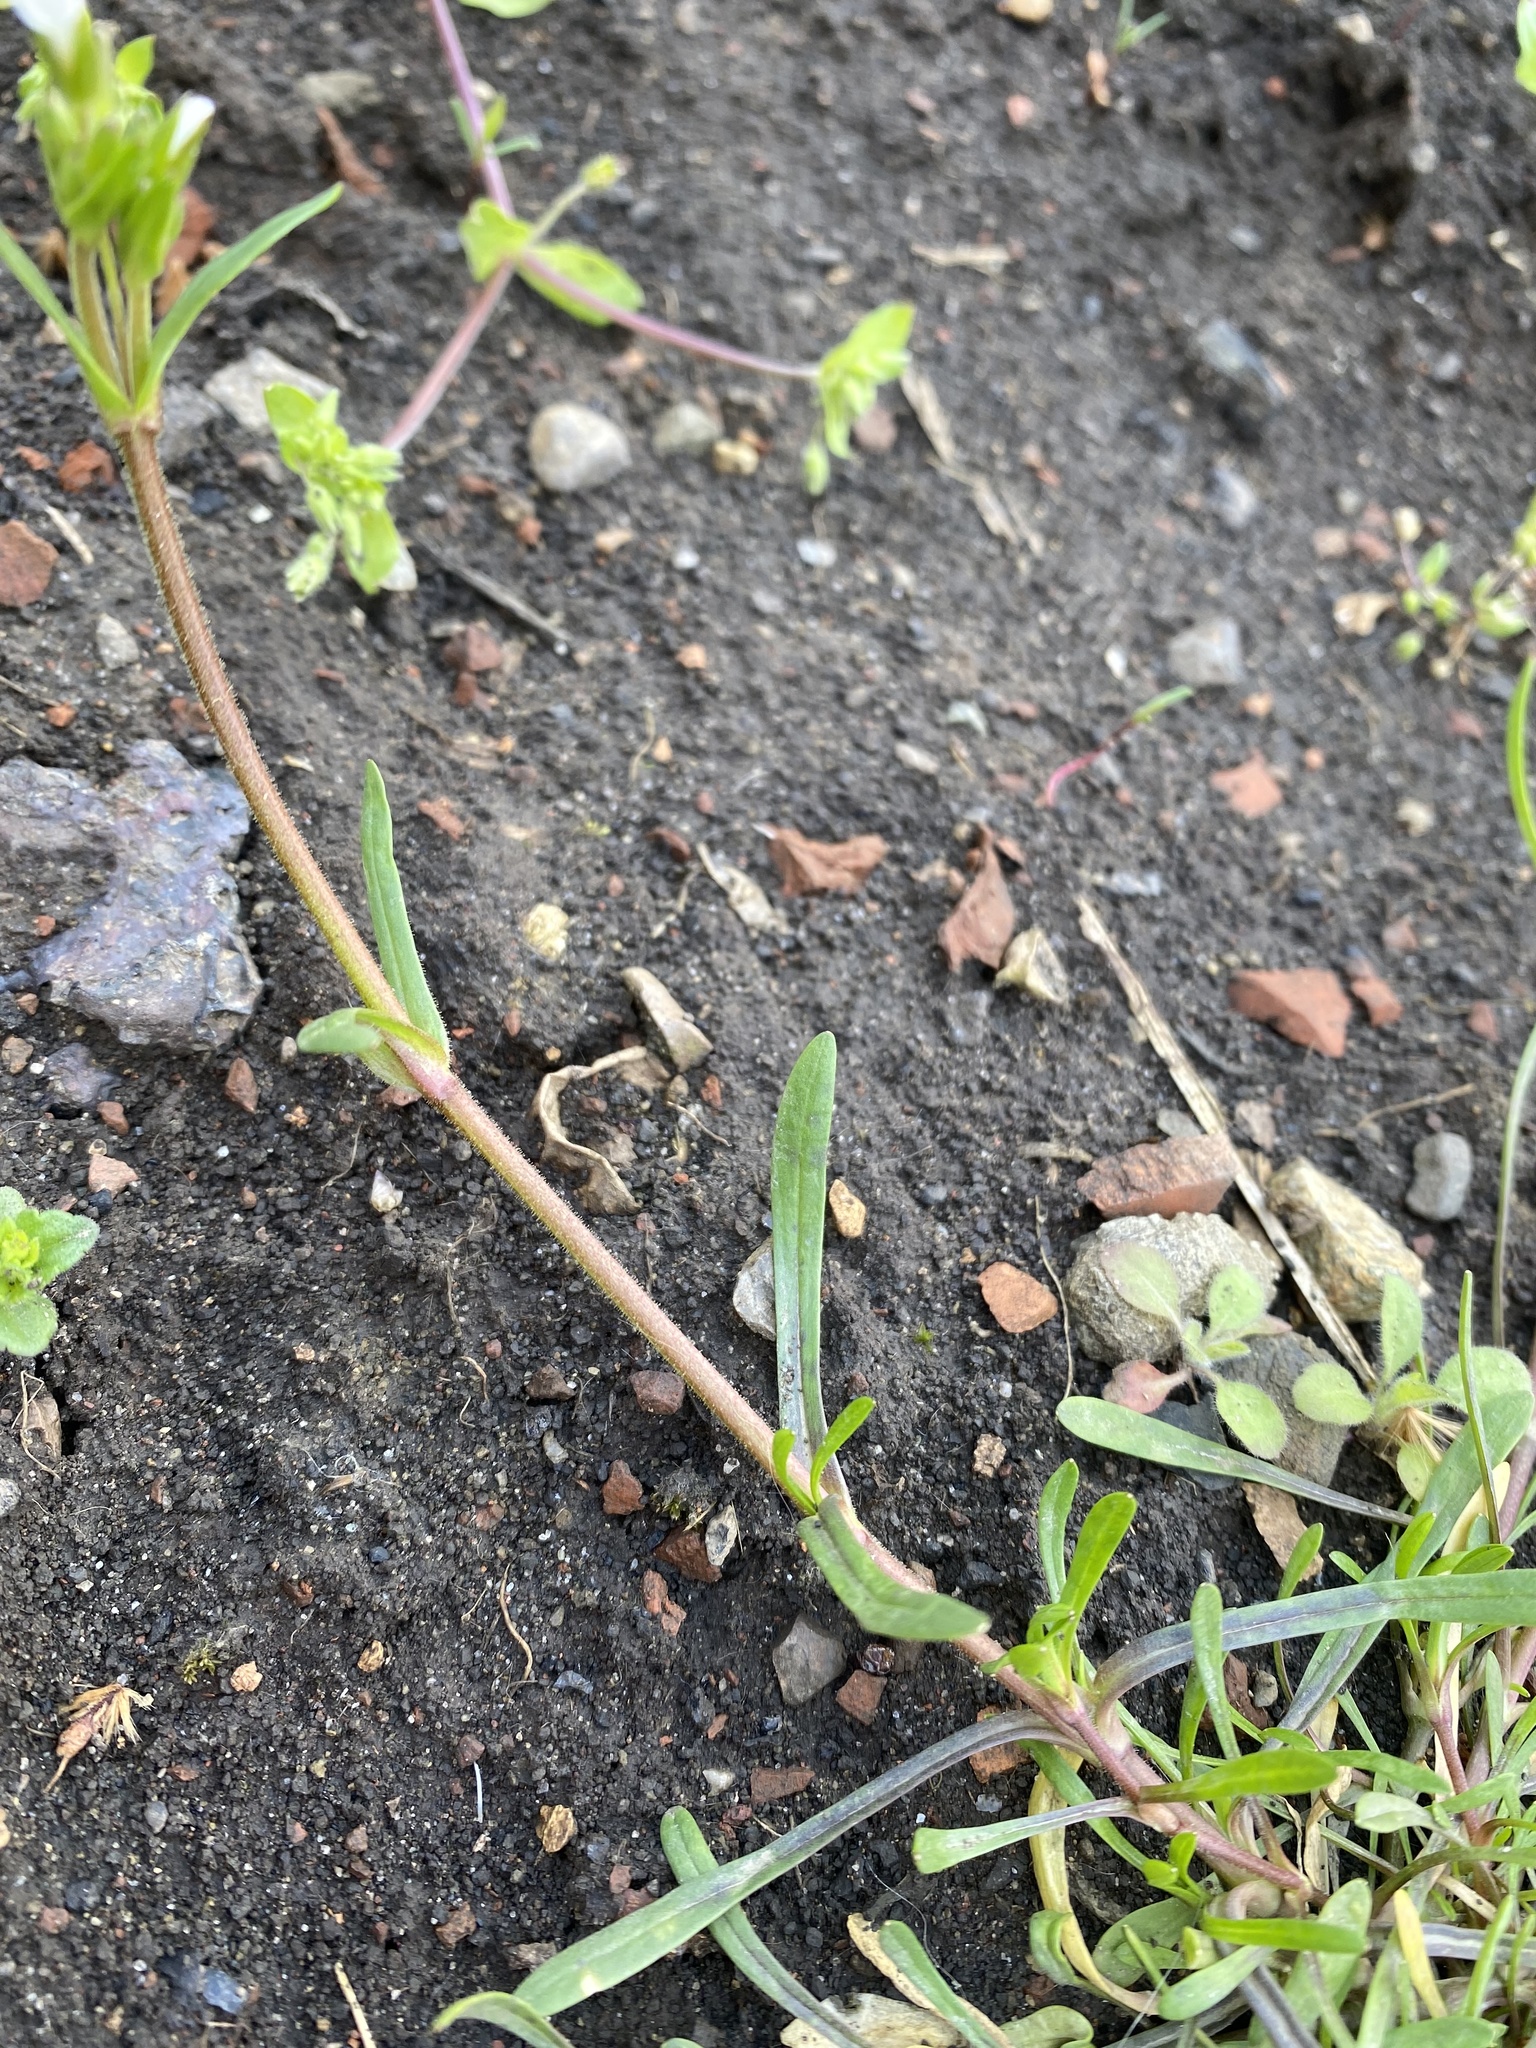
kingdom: Plantae
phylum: Tracheophyta
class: Magnoliopsida
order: Caryophyllales
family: Caryophyllaceae
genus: Dichodon
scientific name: Dichodon viscidum
